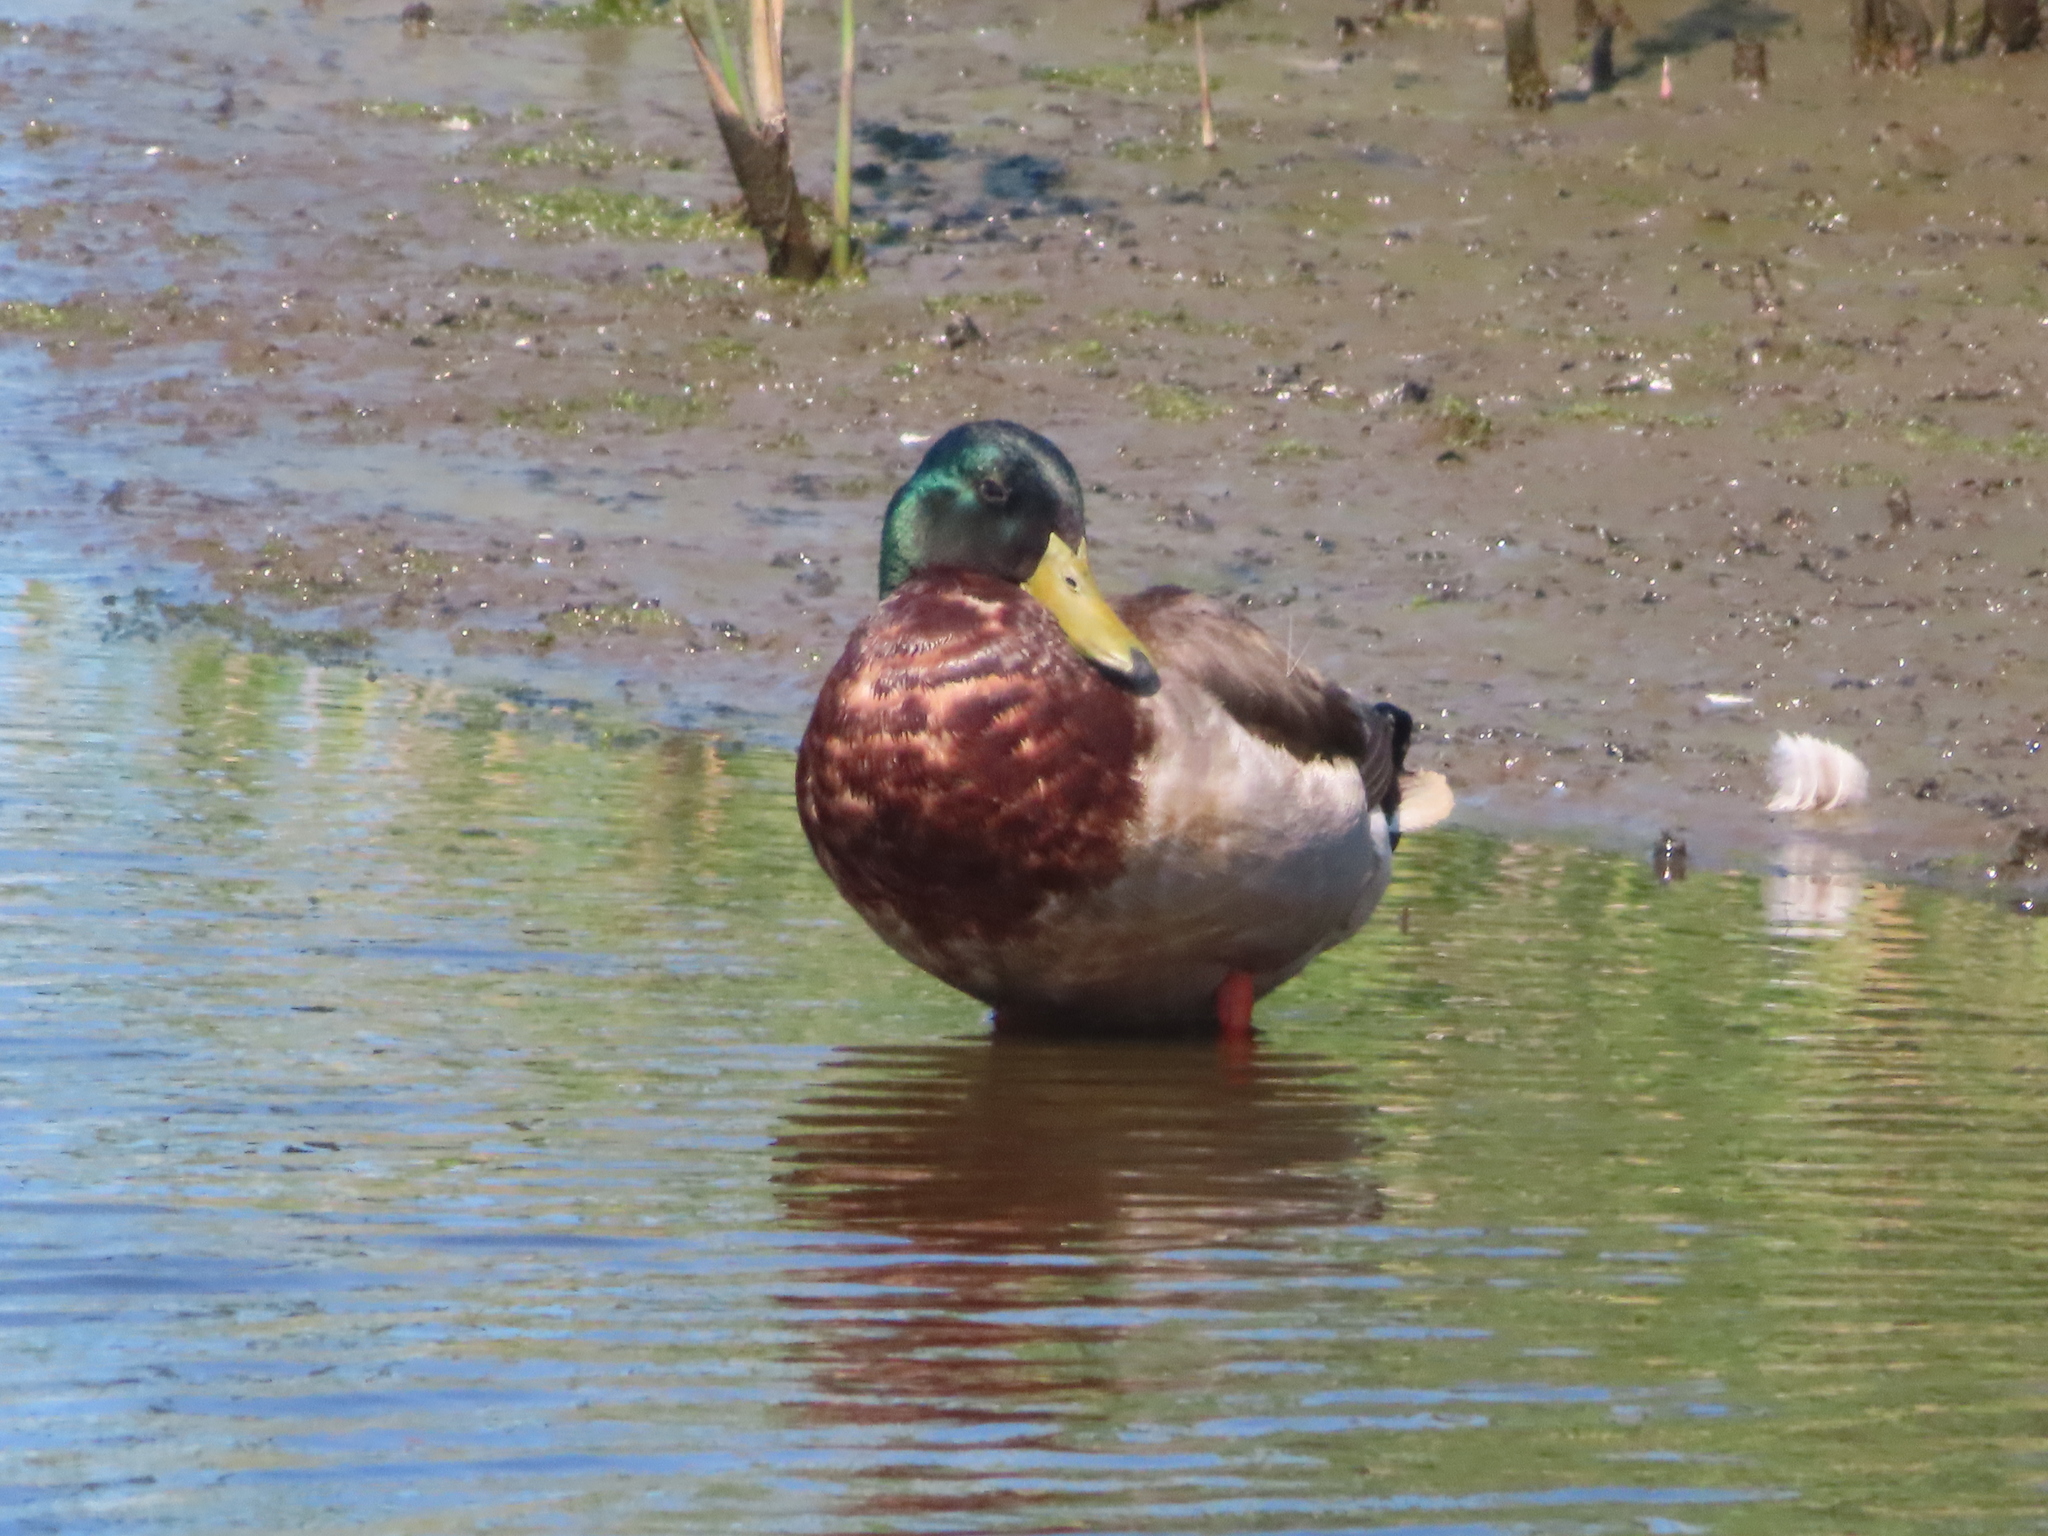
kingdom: Animalia
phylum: Chordata
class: Aves
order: Anseriformes
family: Anatidae
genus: Anas
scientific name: Anas platyrhynchos
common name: Mallard
